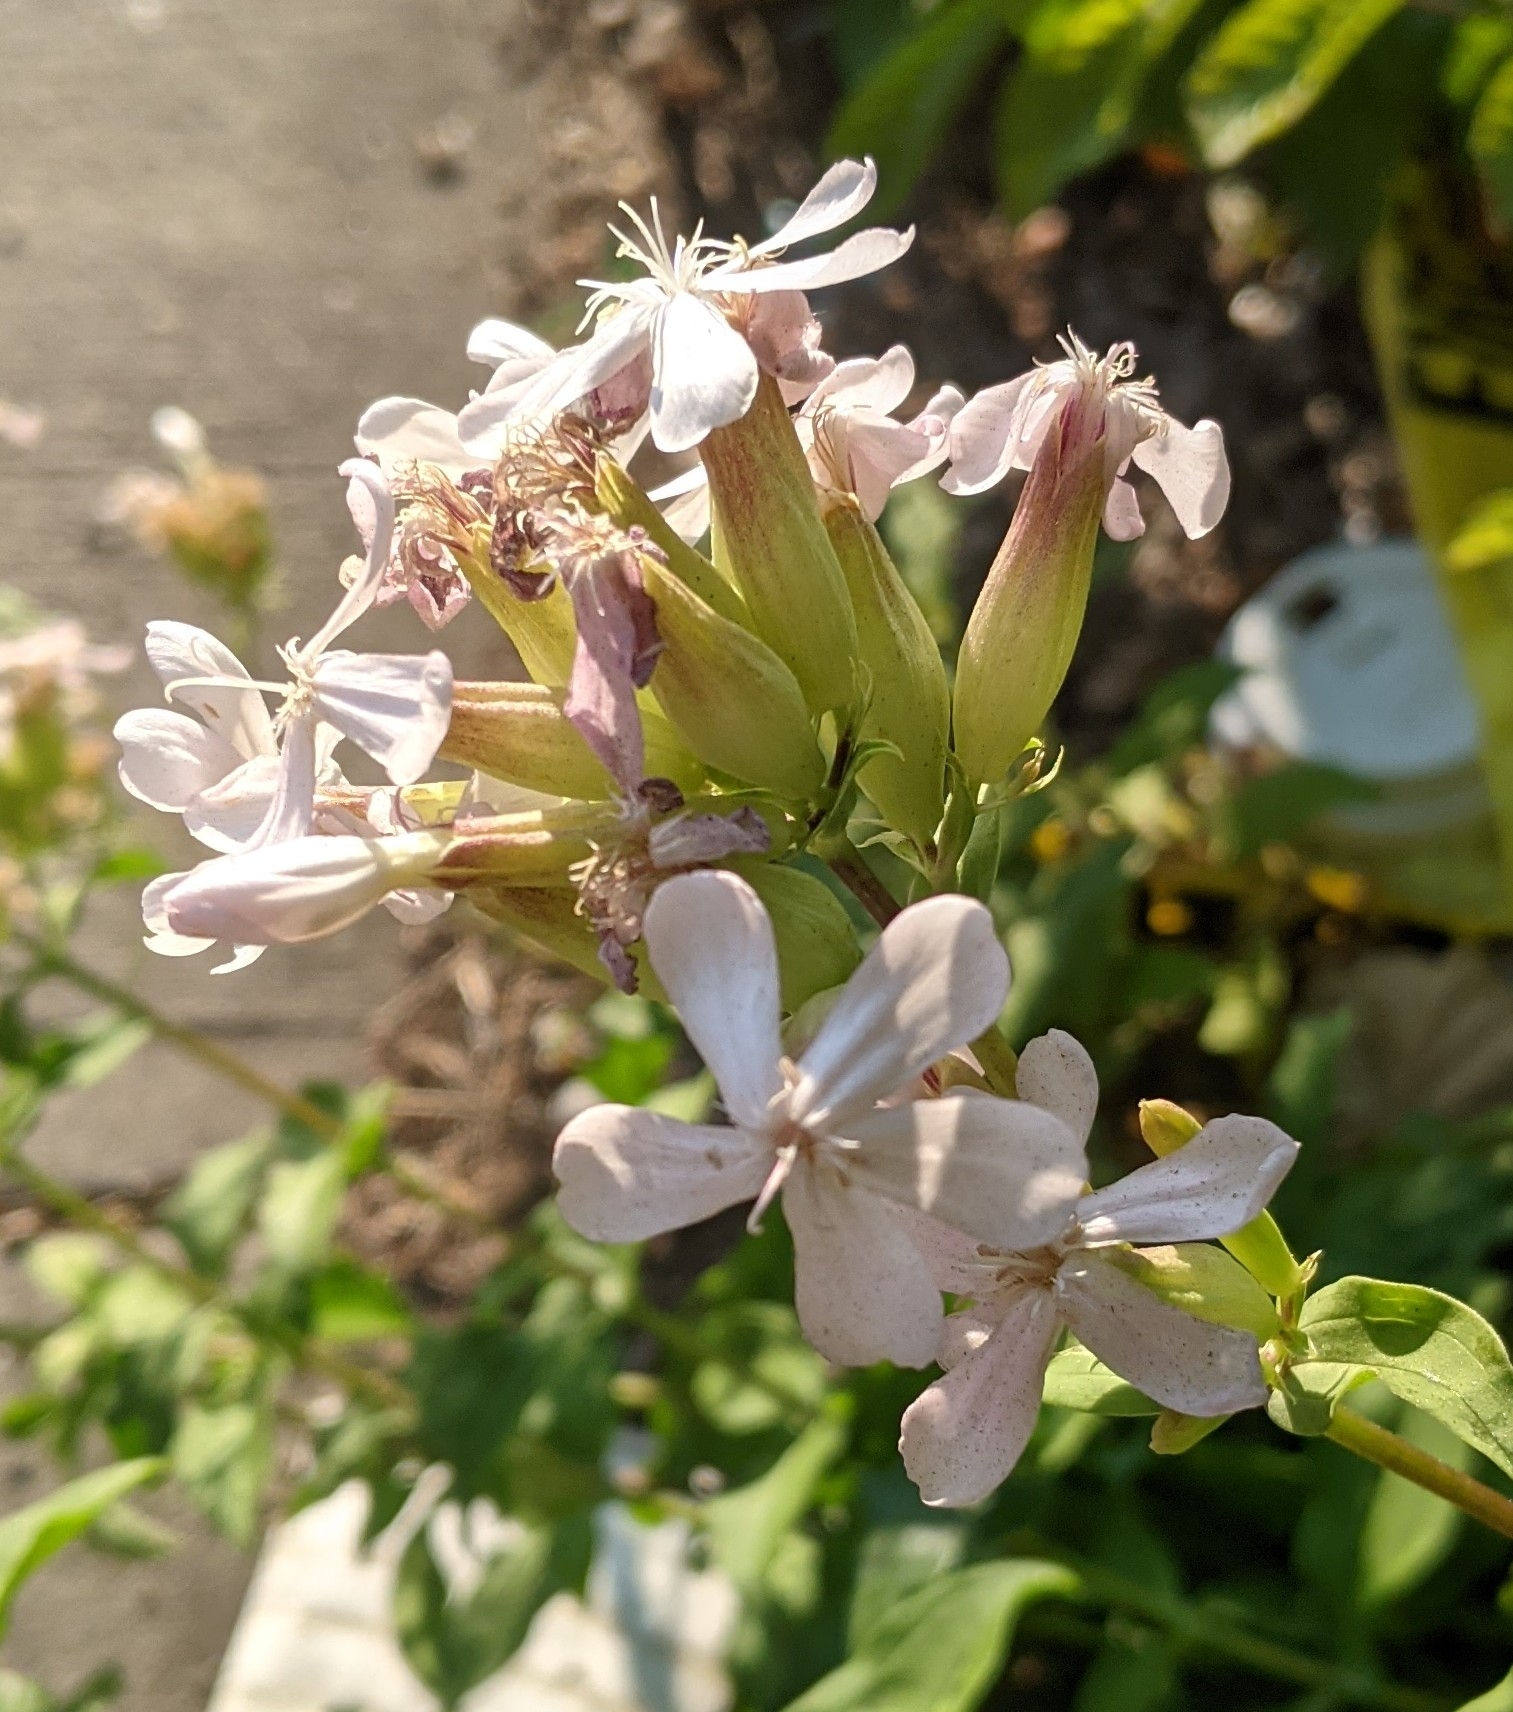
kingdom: Plantae
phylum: Tracheophyta
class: Magnoliopsida
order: Caryophyllales
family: Caryophyllaceae
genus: Saponaria
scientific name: Saponaria officinalis
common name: Soapwort
